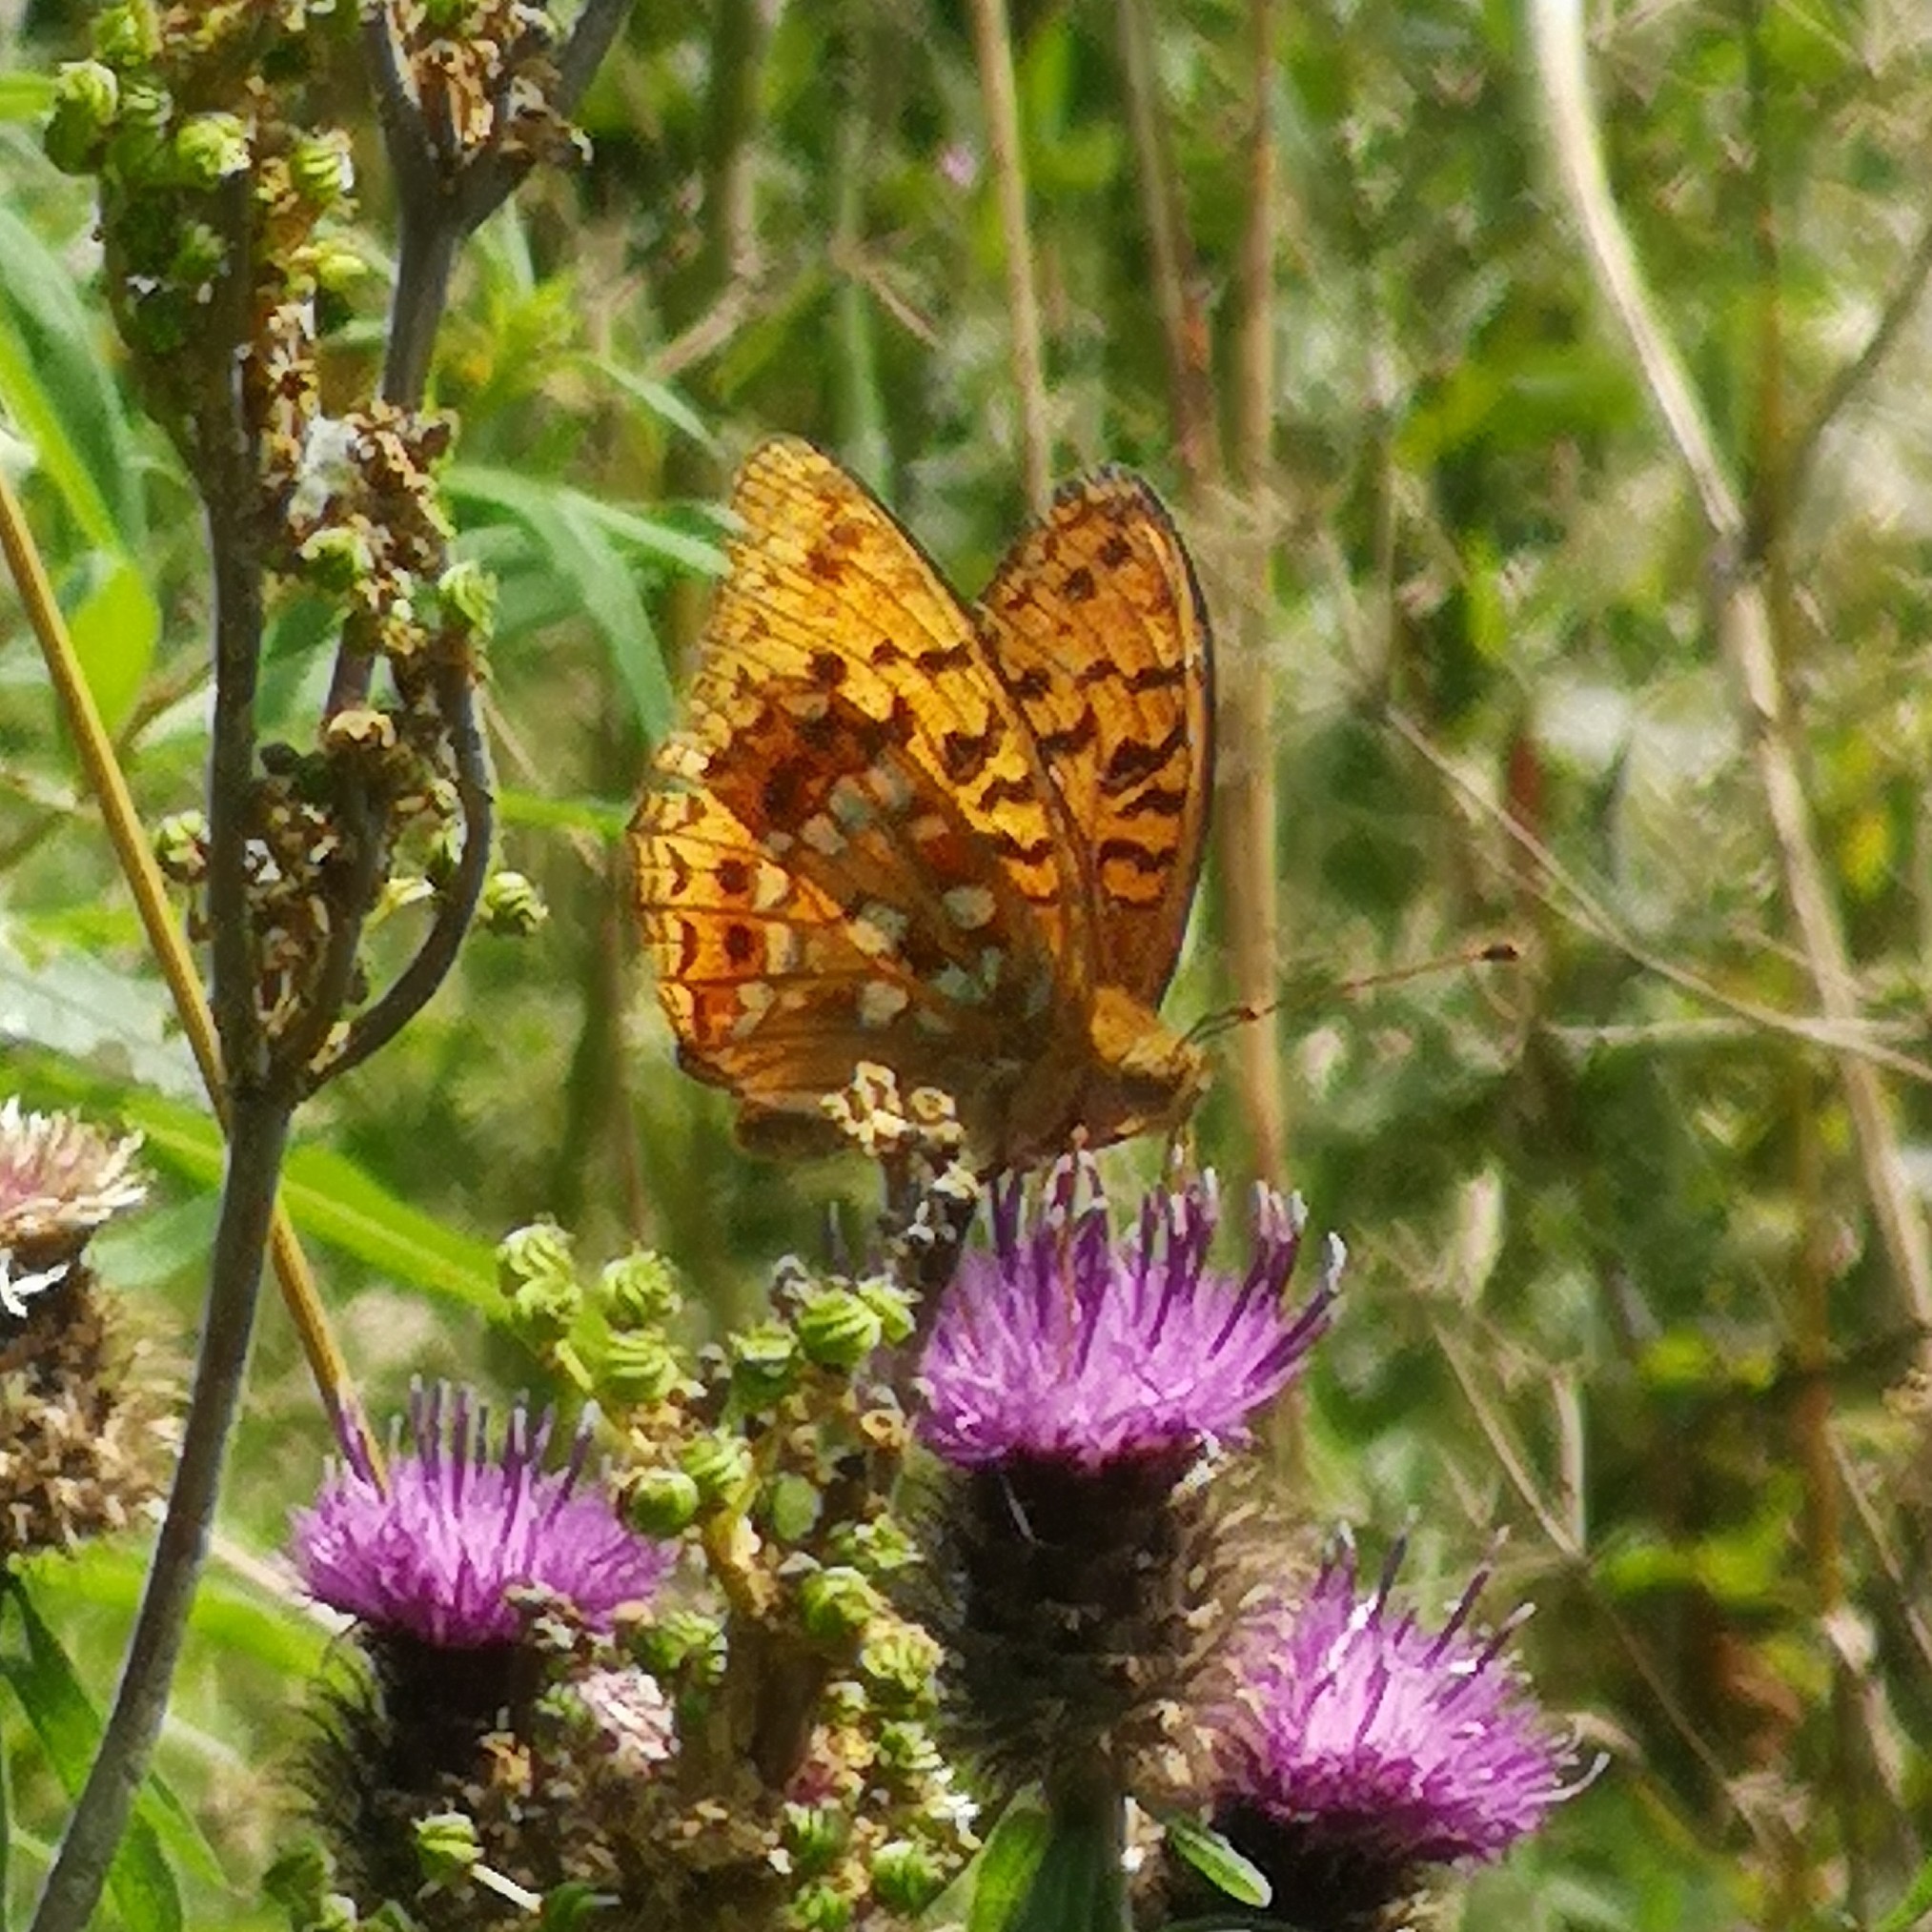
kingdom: Animalia
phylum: Arthropoda
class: Insecta
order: Lepidoptera
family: Nymphalidae
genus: Fabriciana
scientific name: Fabriciana adippe
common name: High brown fritillary
